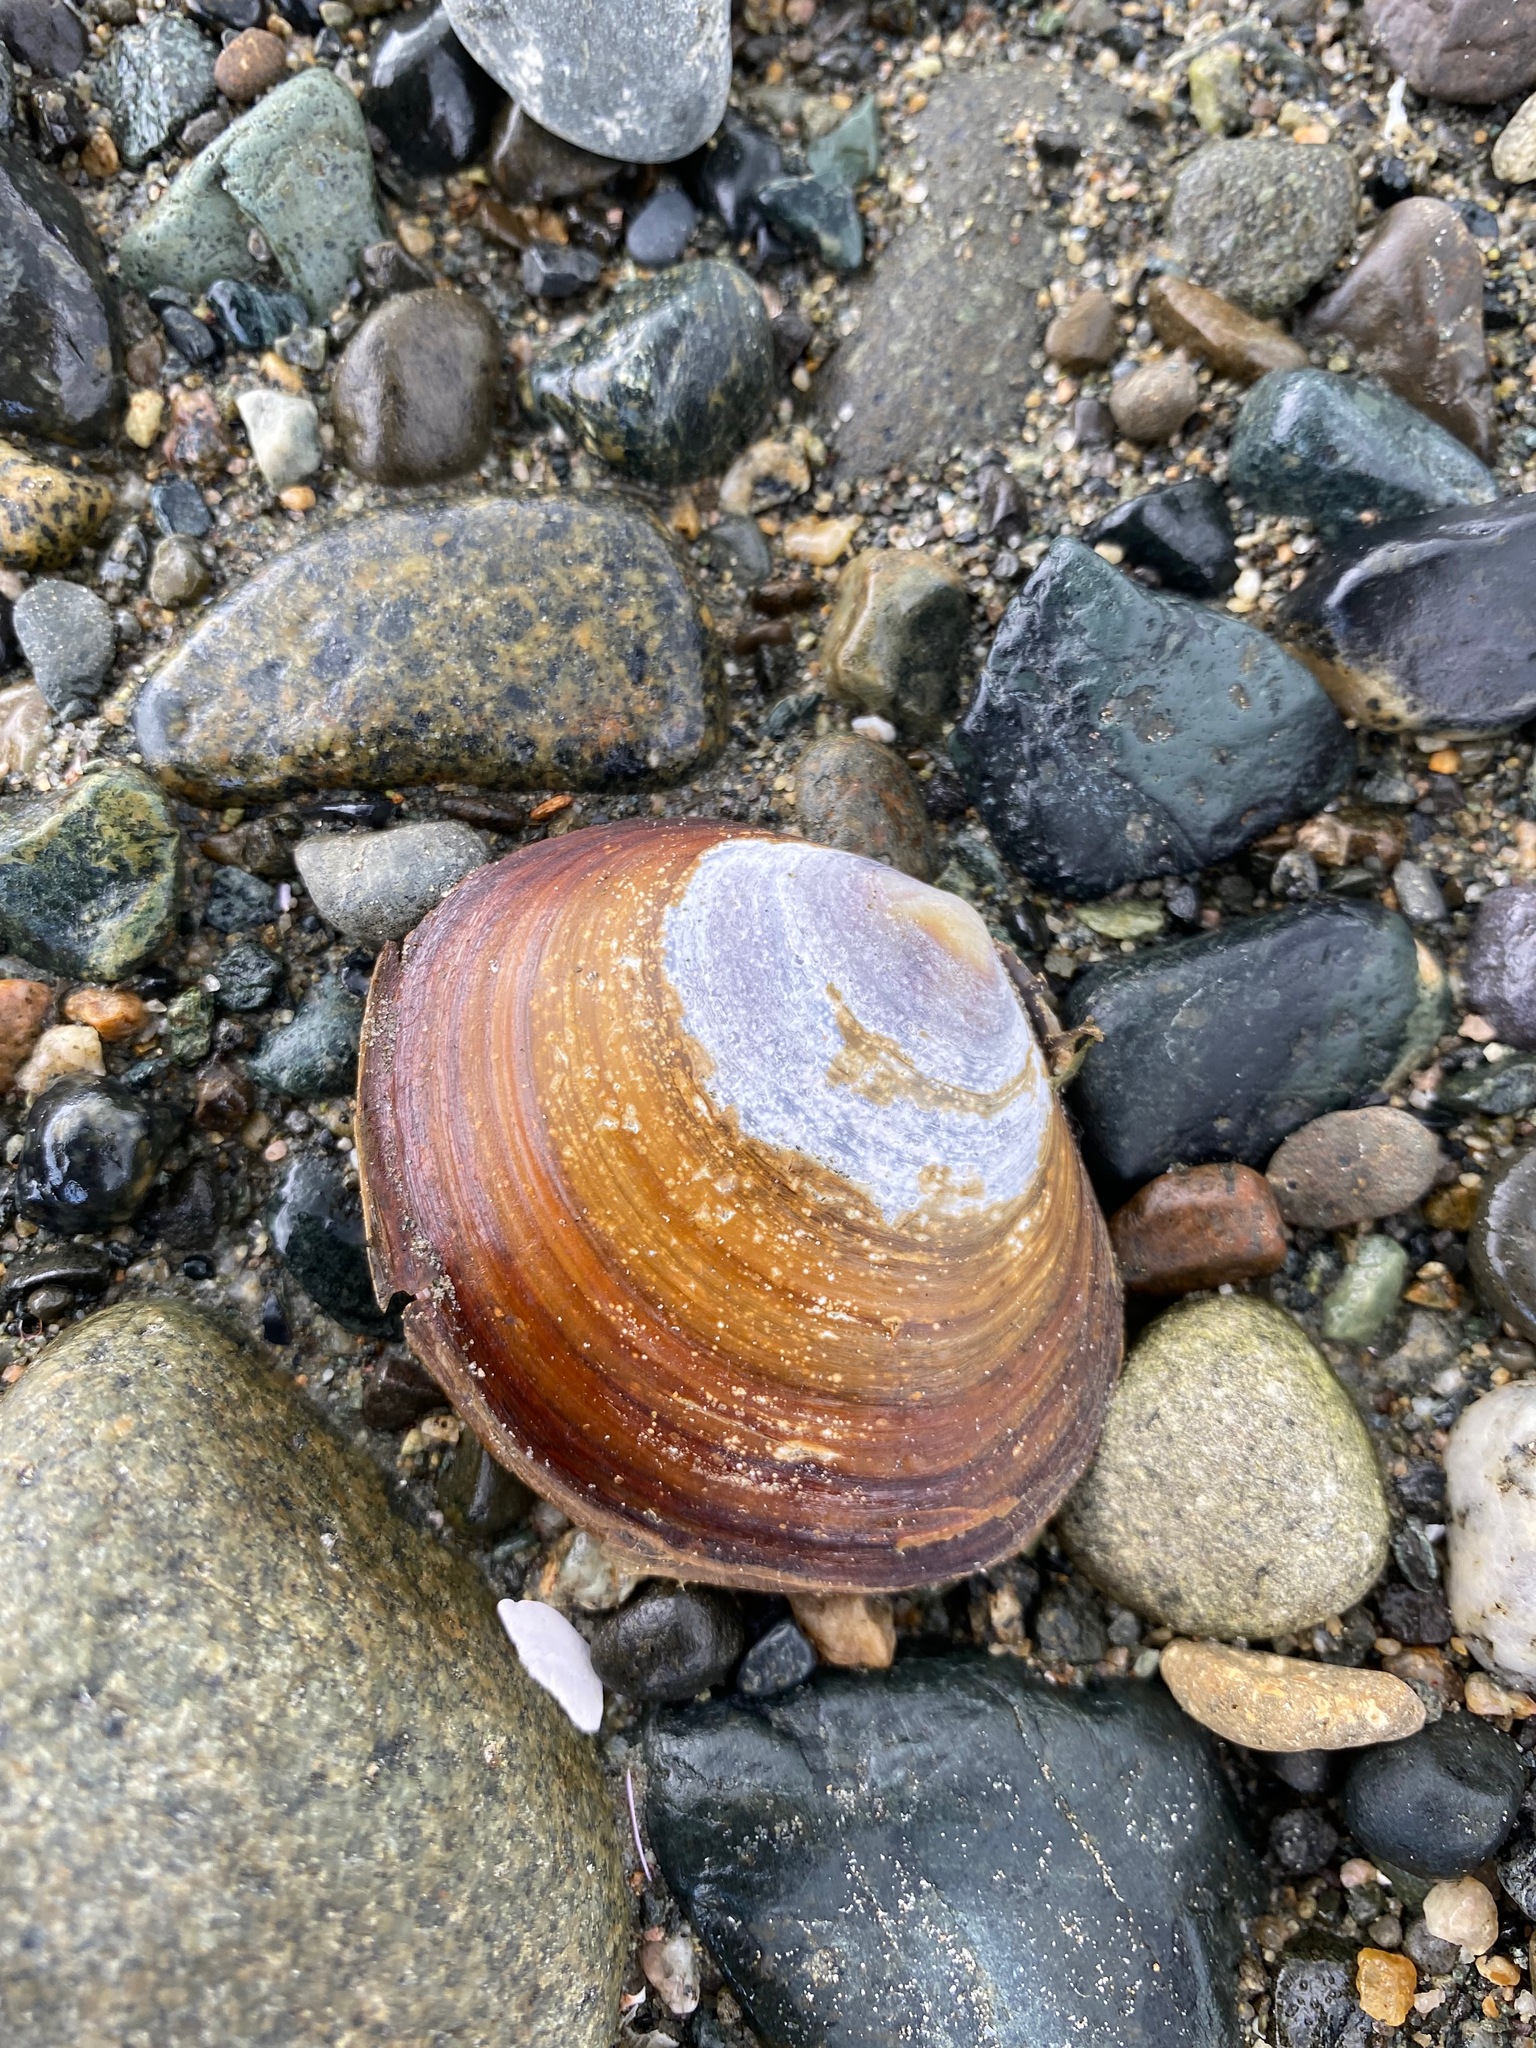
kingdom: Animalia
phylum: Mollusca
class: Bivalvia
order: Cardiida
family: Psammobiidae
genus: Nuttallia
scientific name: Nuttallia obscurata
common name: Purple mahogany-clam
